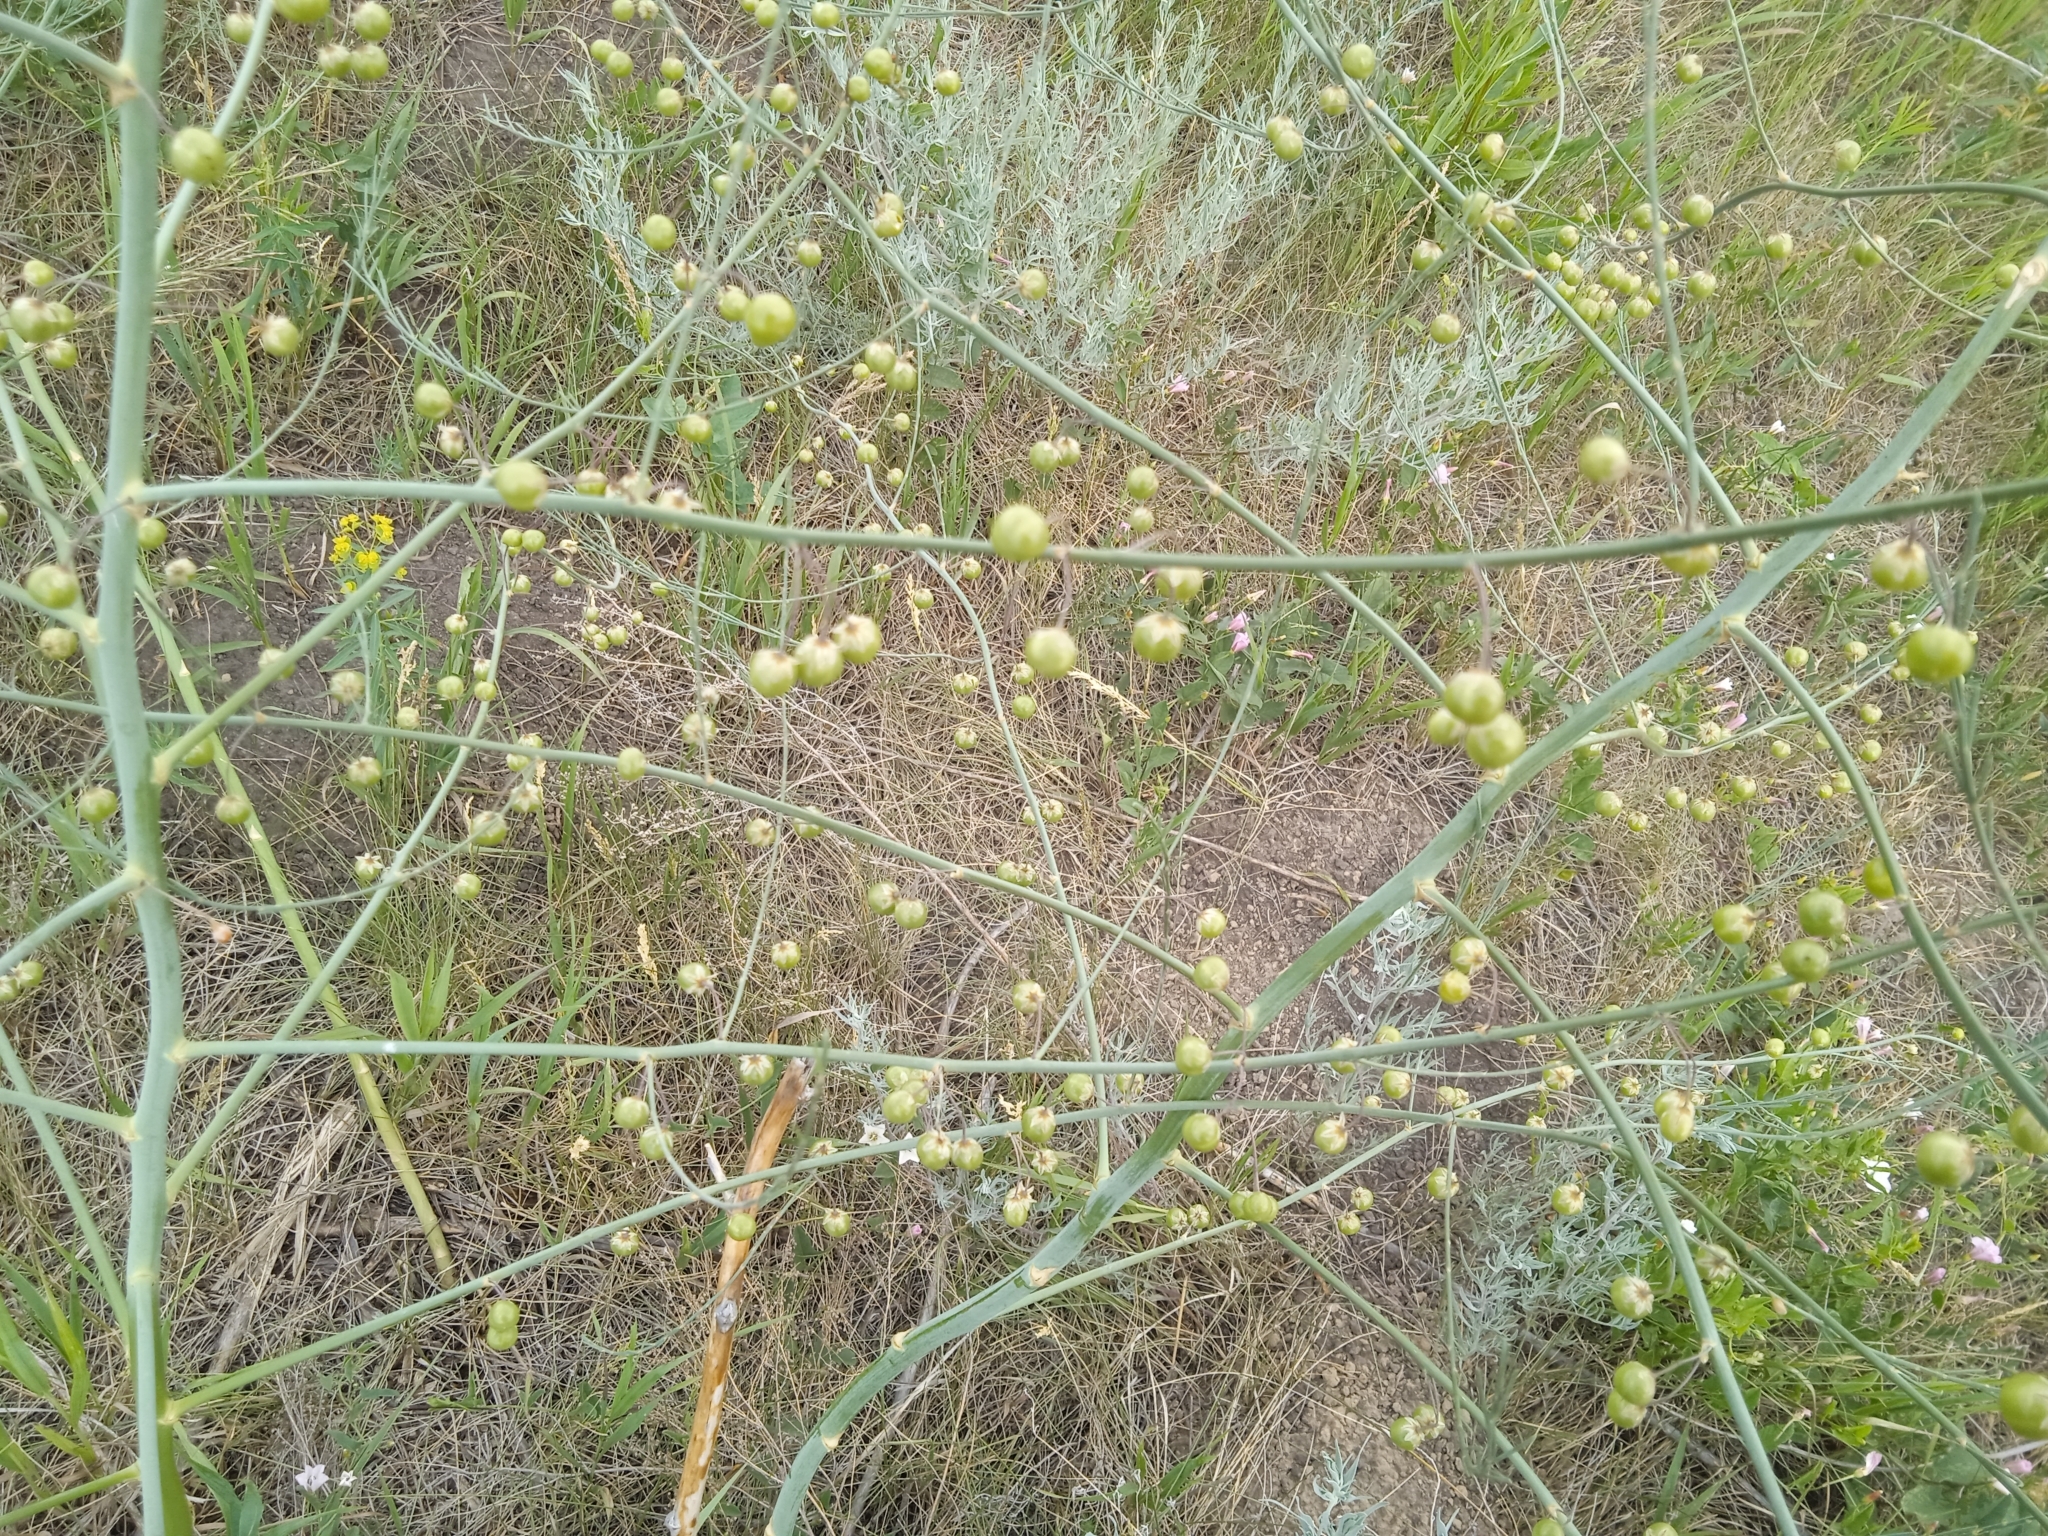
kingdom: Plantae
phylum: Tracheophyta
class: Liliopsida
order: Asparagales
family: Asparagaceae
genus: Asparagus
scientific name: Asparagus officinalis
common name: Garden asparagus
